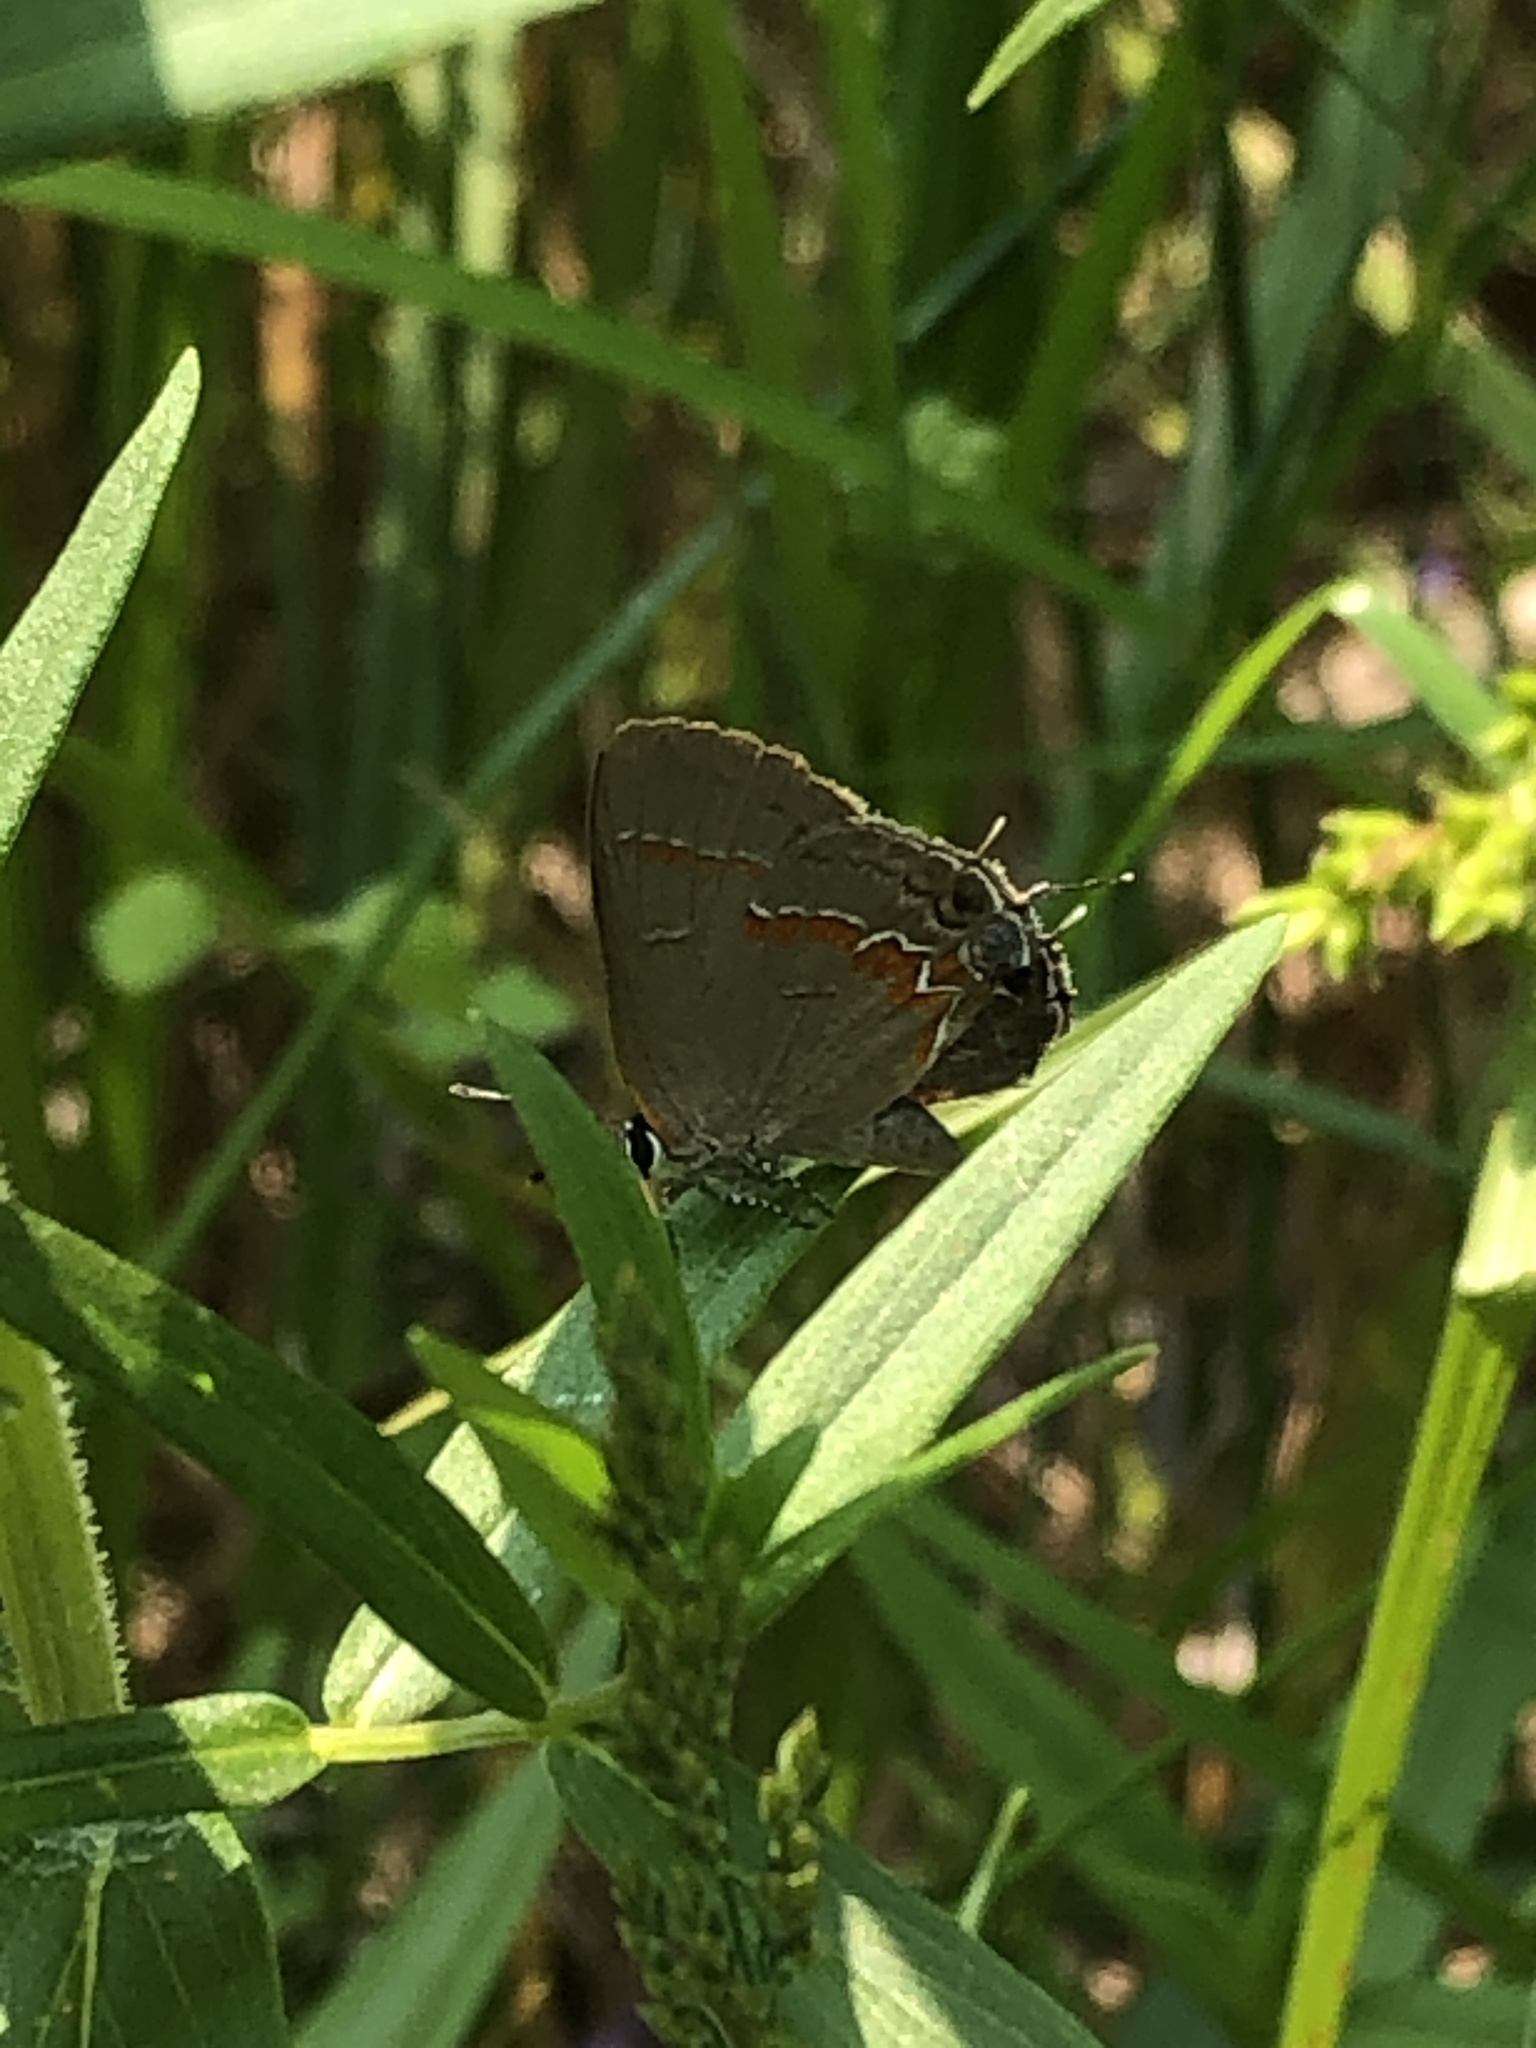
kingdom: Animalia
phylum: Arthropoda
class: Insecta
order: Lepidoptera
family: Lycaenidae
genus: Calycopis
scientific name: Calycopis cecrops
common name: Red-banded hairstreak
